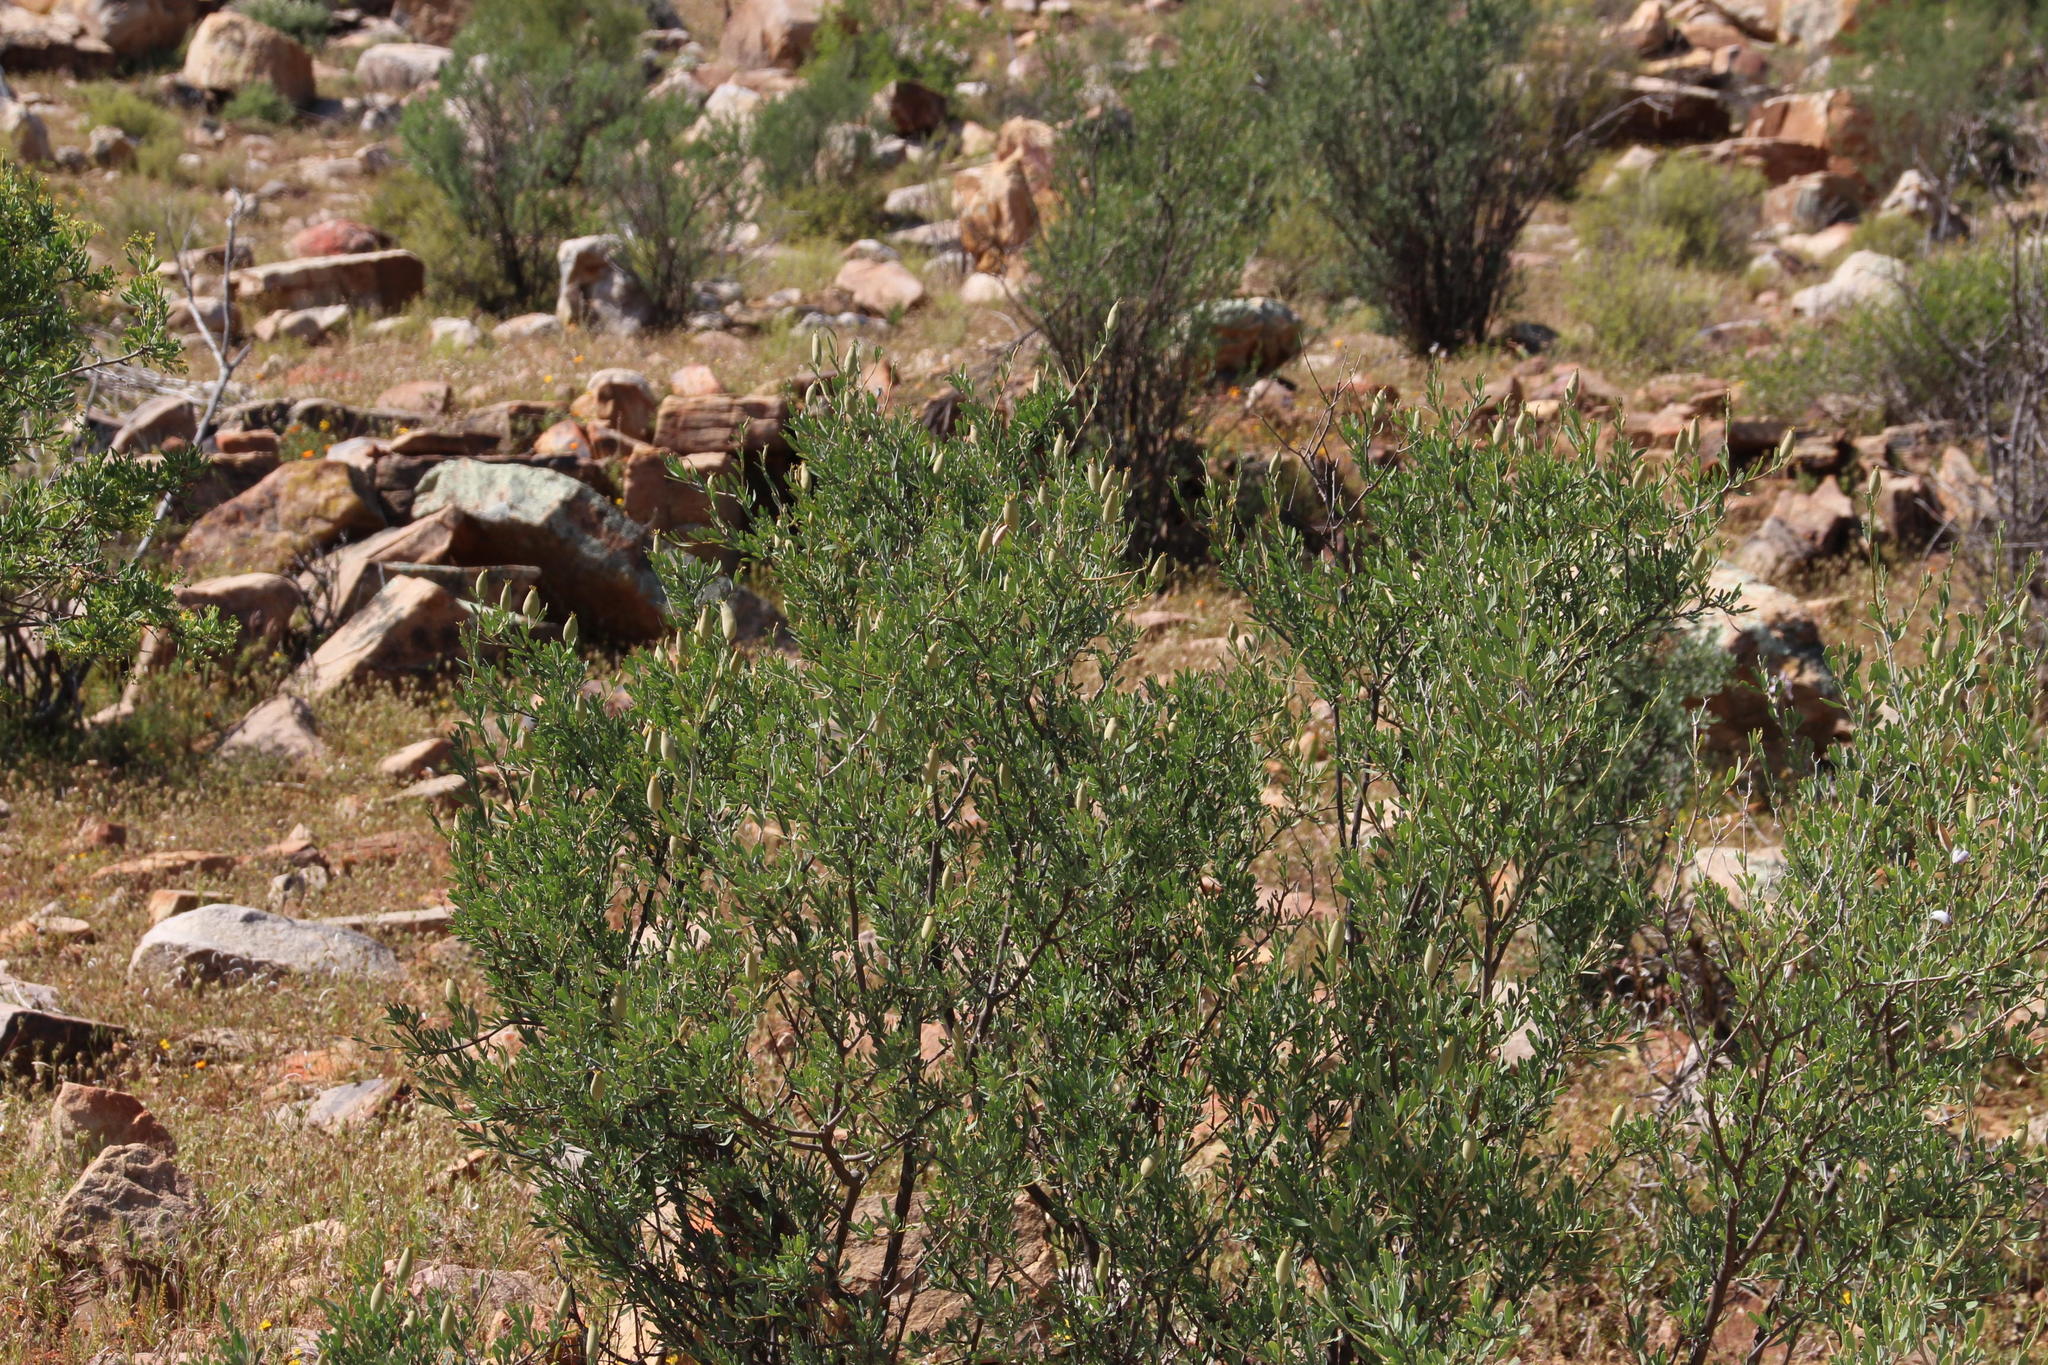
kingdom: Plantae
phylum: Tracheophyta
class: Magnoliopsida
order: Solanales
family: Montiniaceae
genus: Montinia
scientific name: Montinia caryophyllacea
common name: Wild clove-bush
